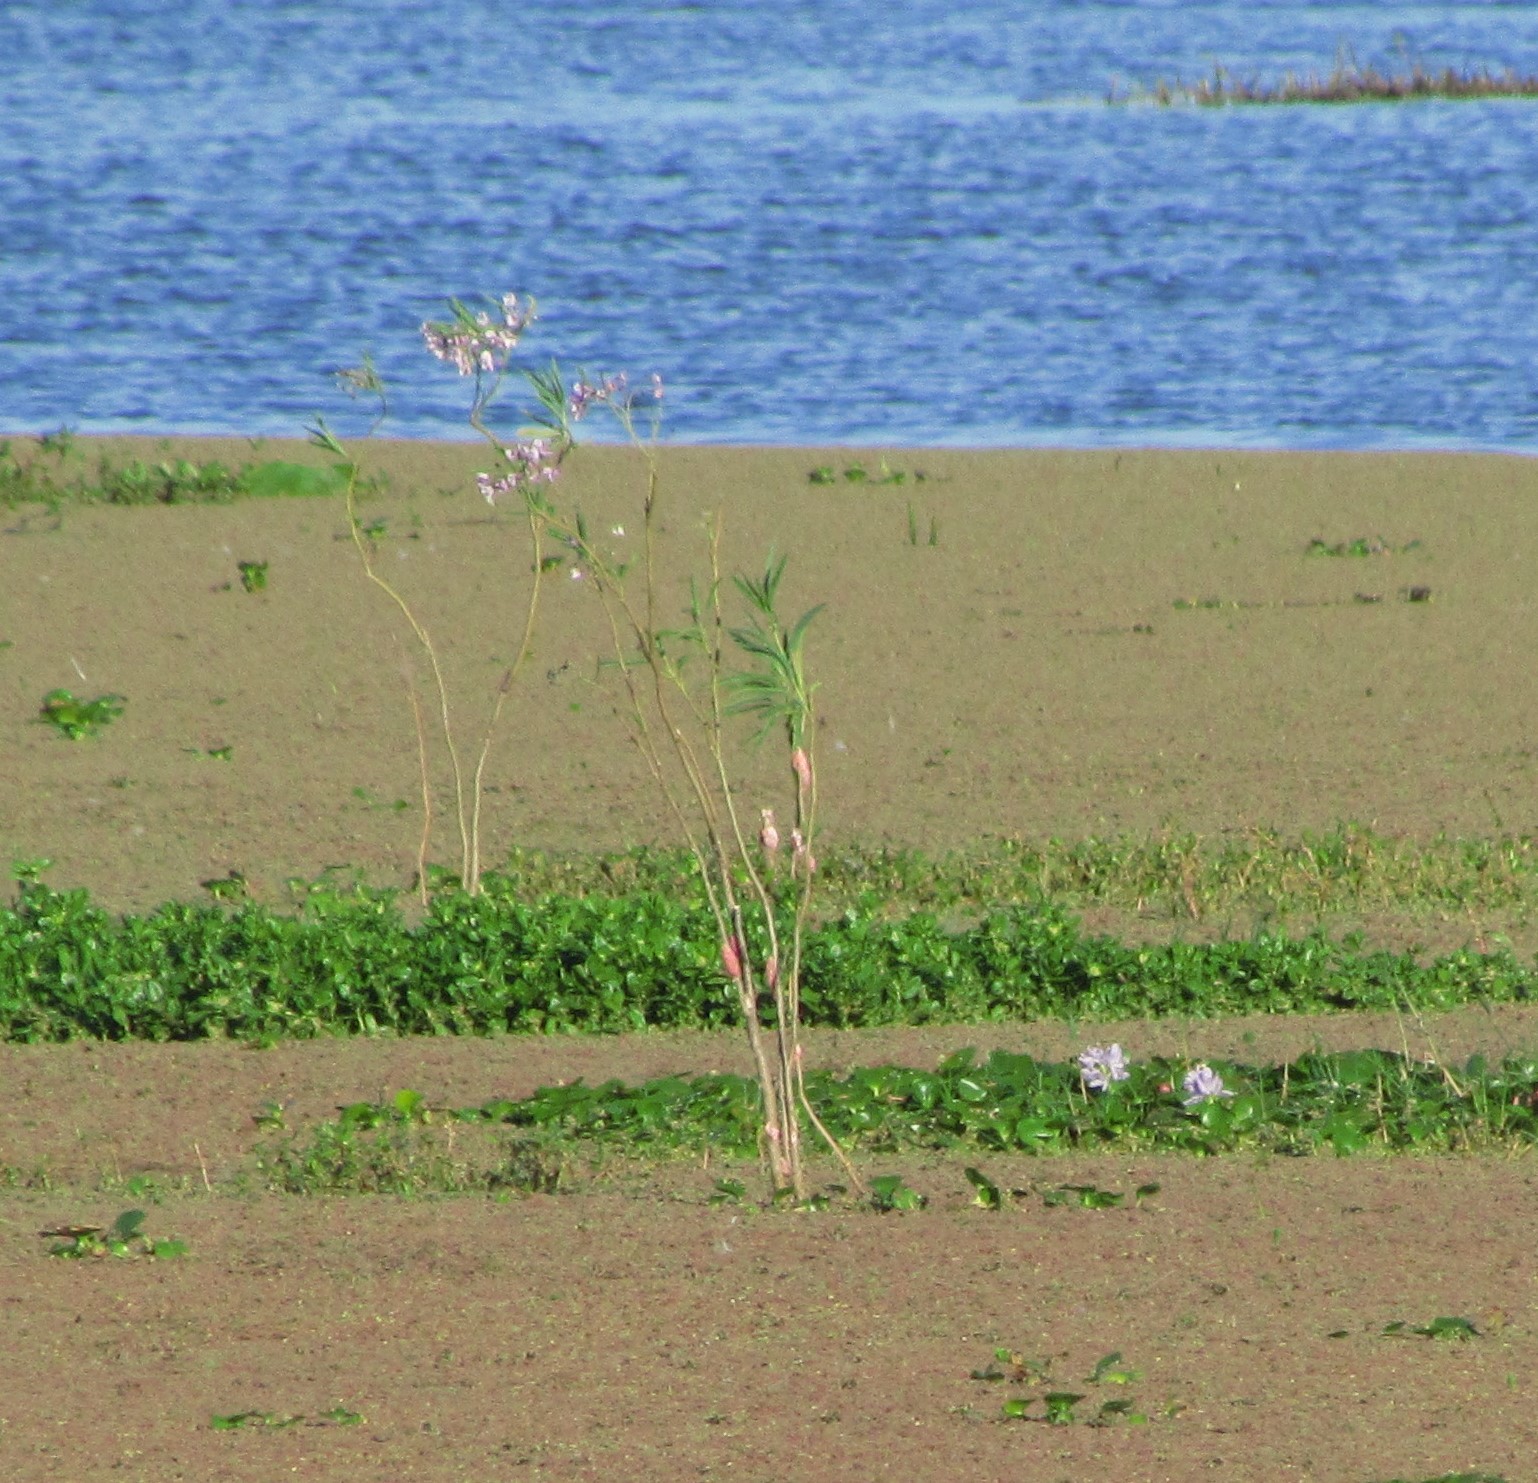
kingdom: Plantae
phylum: Tracheophyta
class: Magnoliopsida
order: Solanales
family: Solanaceae
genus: Solanum
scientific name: Solanum glaucophyllum
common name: Waxyleaf nightshade
